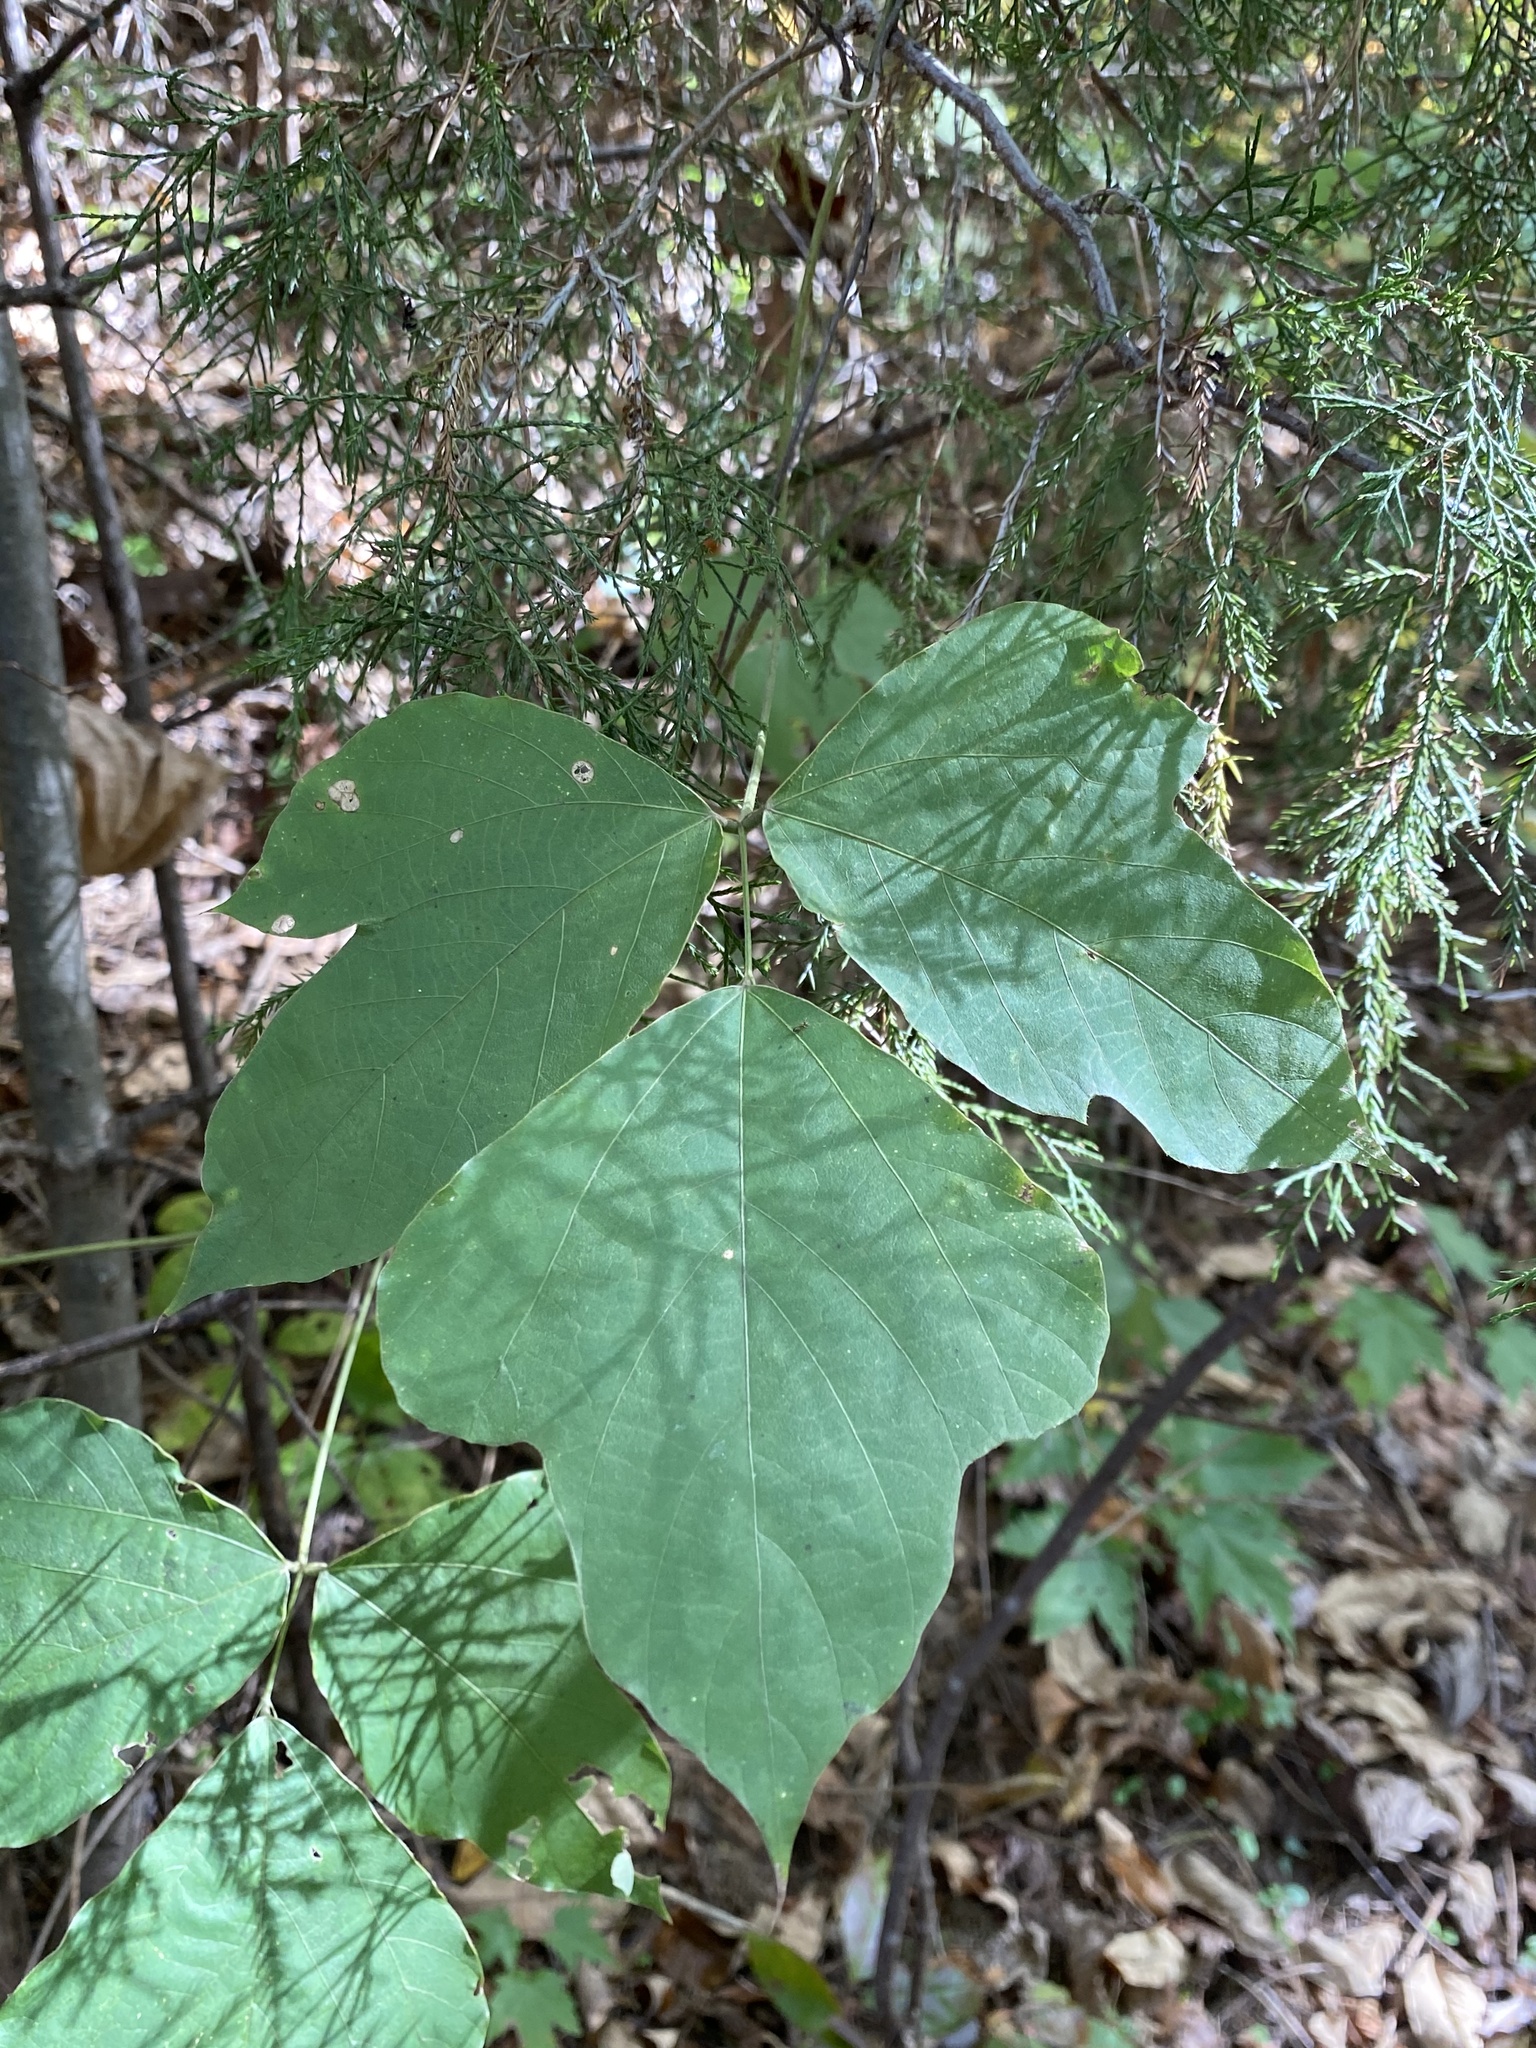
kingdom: Plantae
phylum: Tracheophyta
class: Magnoliopsida
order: Fabales
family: Fabaceae
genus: Pueraria
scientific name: Pueraria montana
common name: Kudzu
